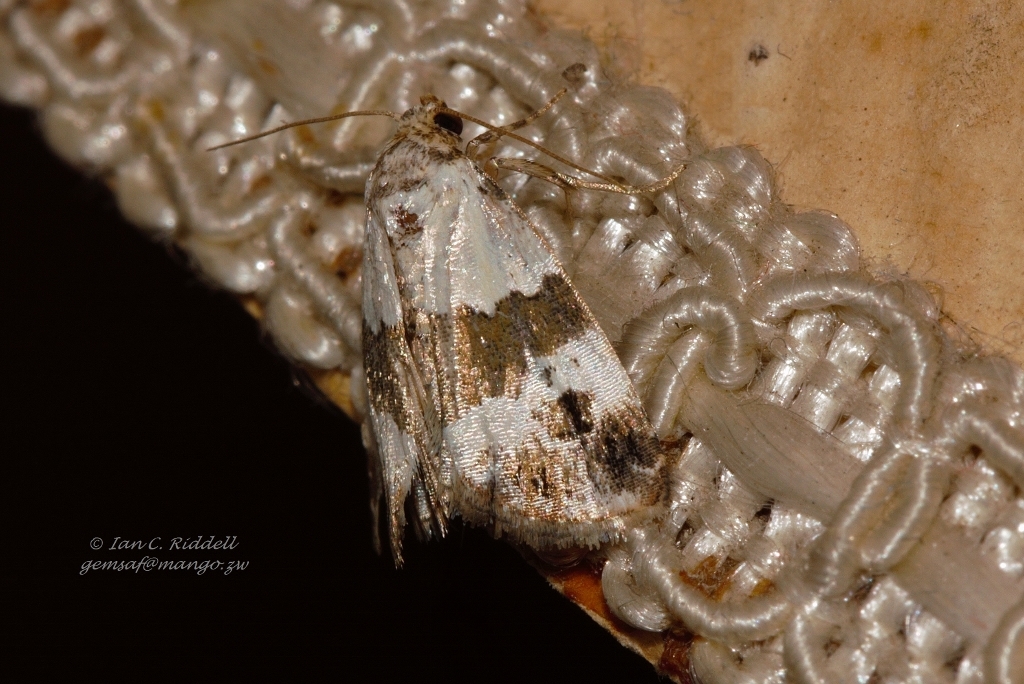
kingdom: Animalia
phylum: Arthropoda
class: Insecta
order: Lepidoptera
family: Noctuidae
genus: Lithacodia
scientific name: Lithacodia blandula
